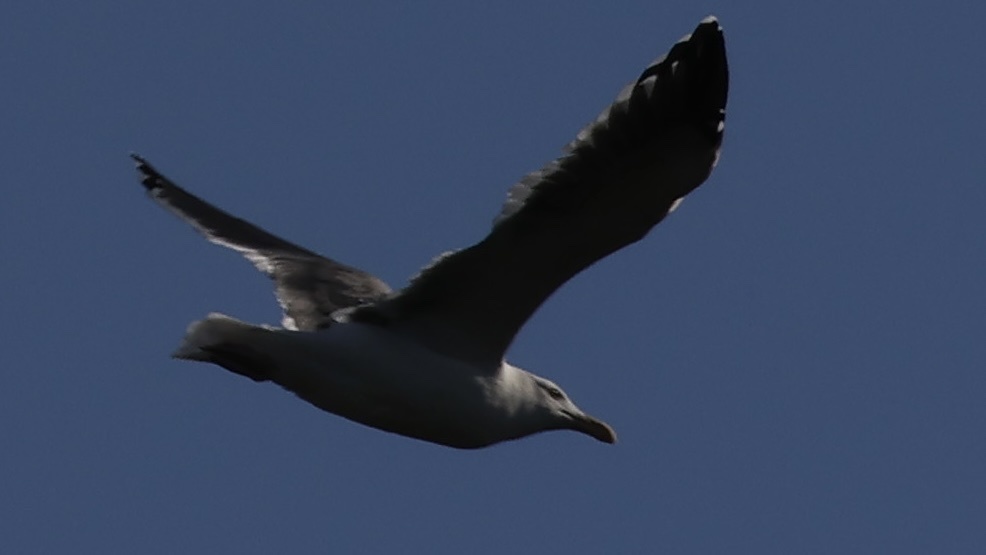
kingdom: Animalia
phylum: Chordata
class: Aves
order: Charadriiformes
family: Laridae
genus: Larus
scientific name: Larus occidentalis
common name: Western gull
